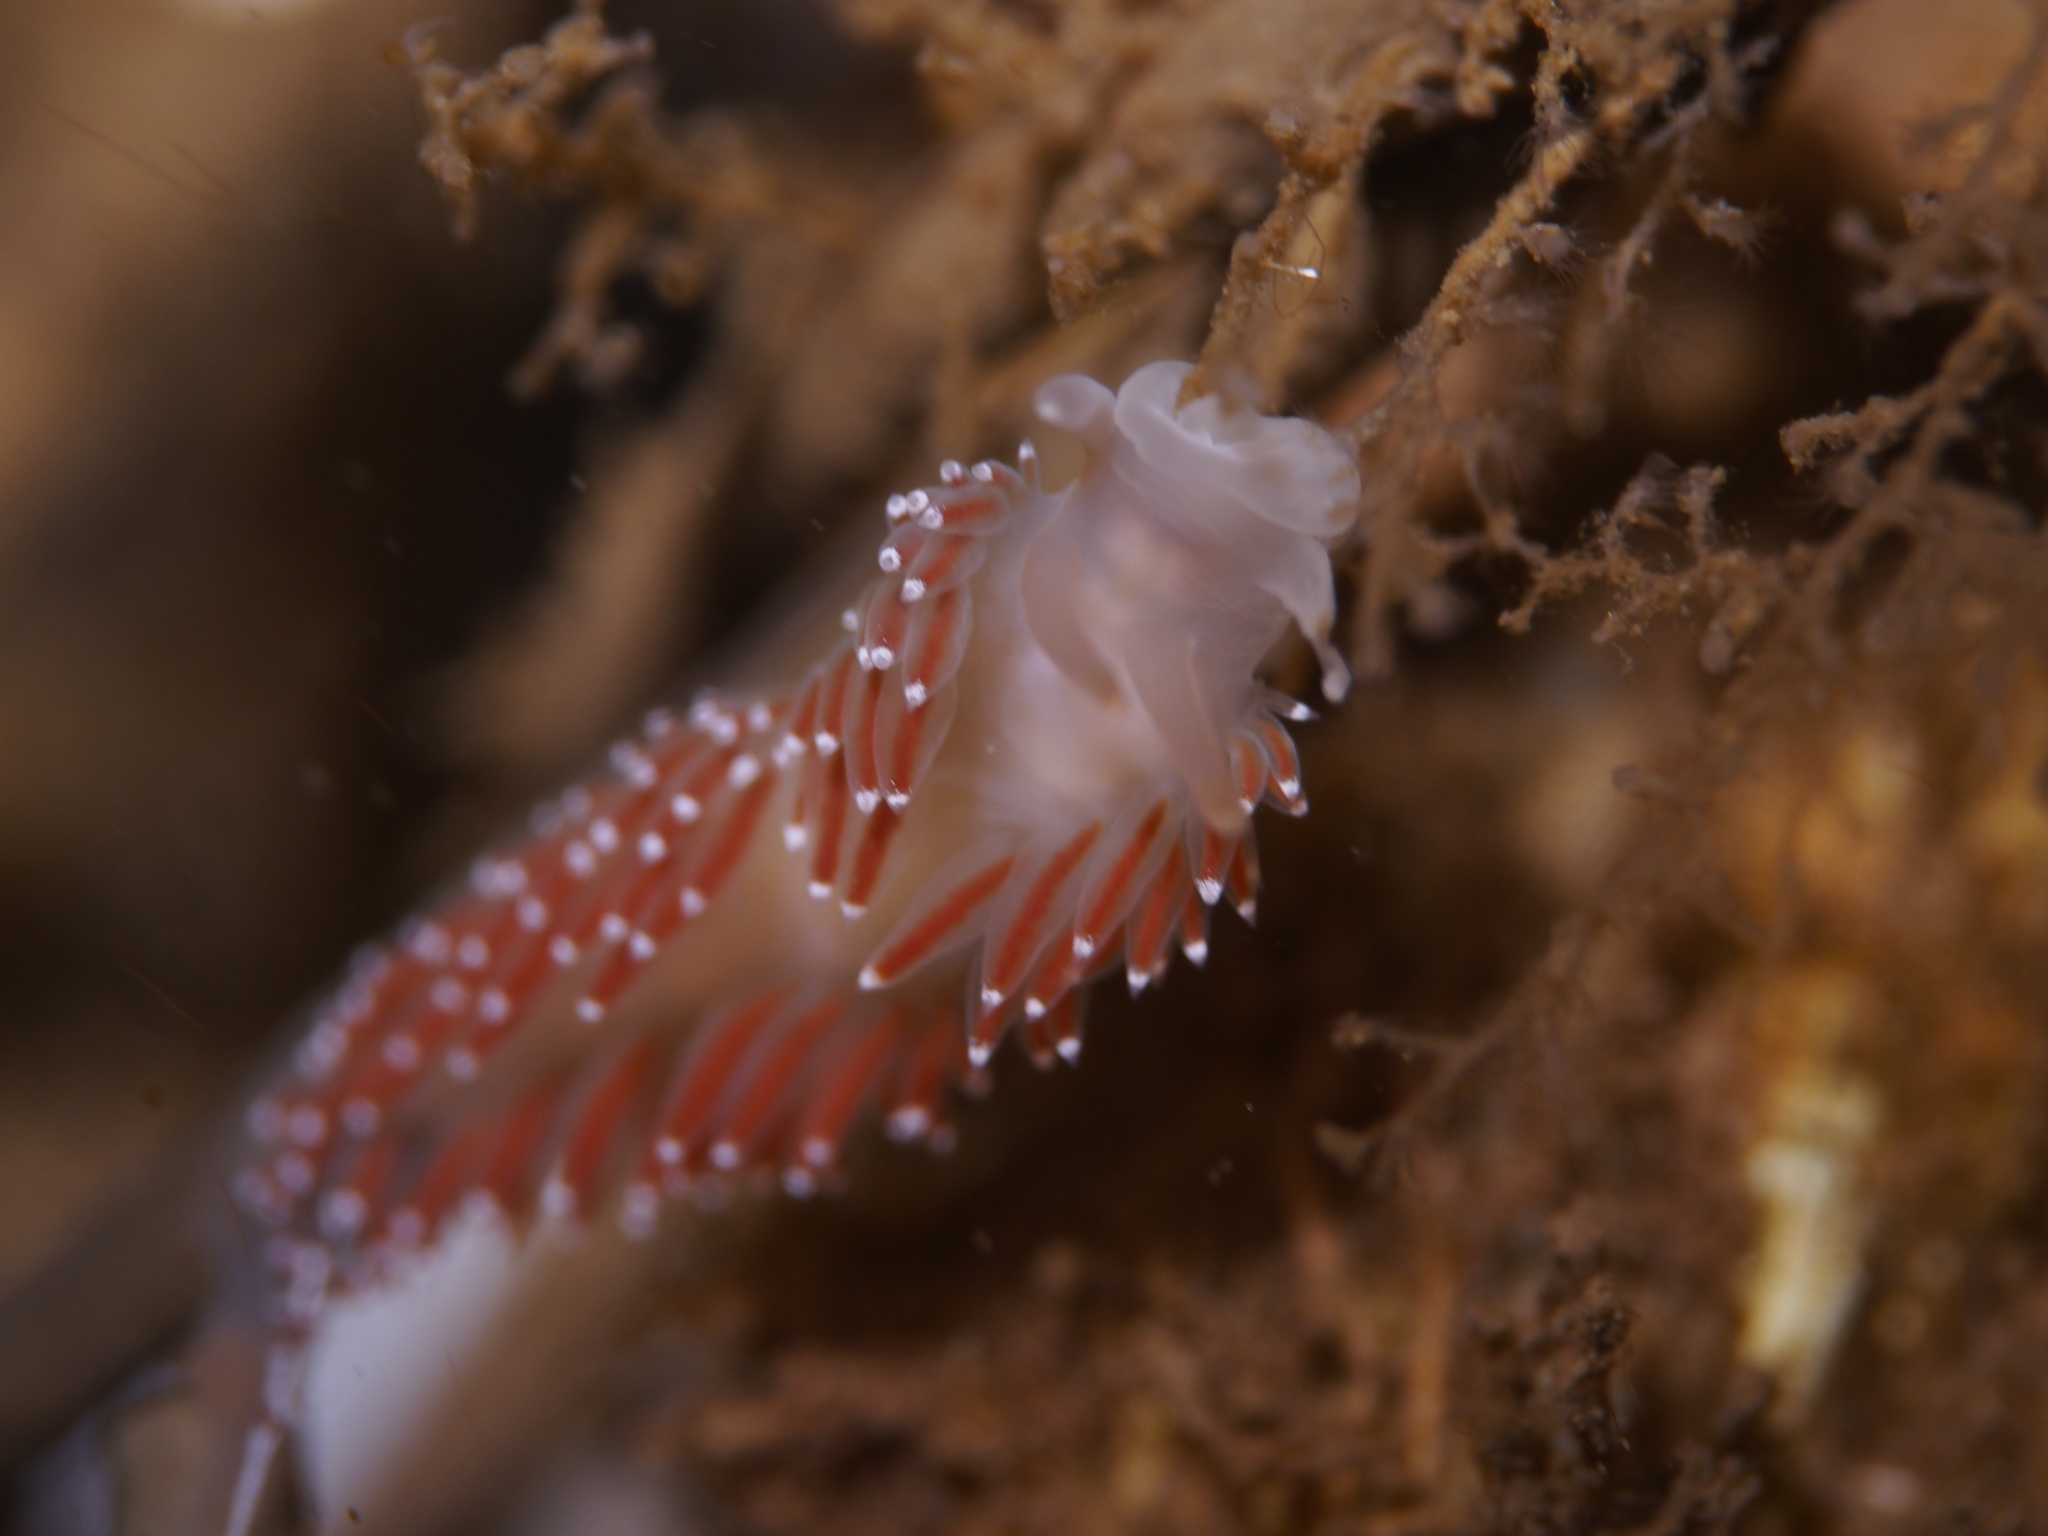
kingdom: Animalia
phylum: Mollusca
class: Gastropoda
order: Nudibranchia
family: Coryphellidae
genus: Coryphella
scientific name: Coryphella verrucosa
